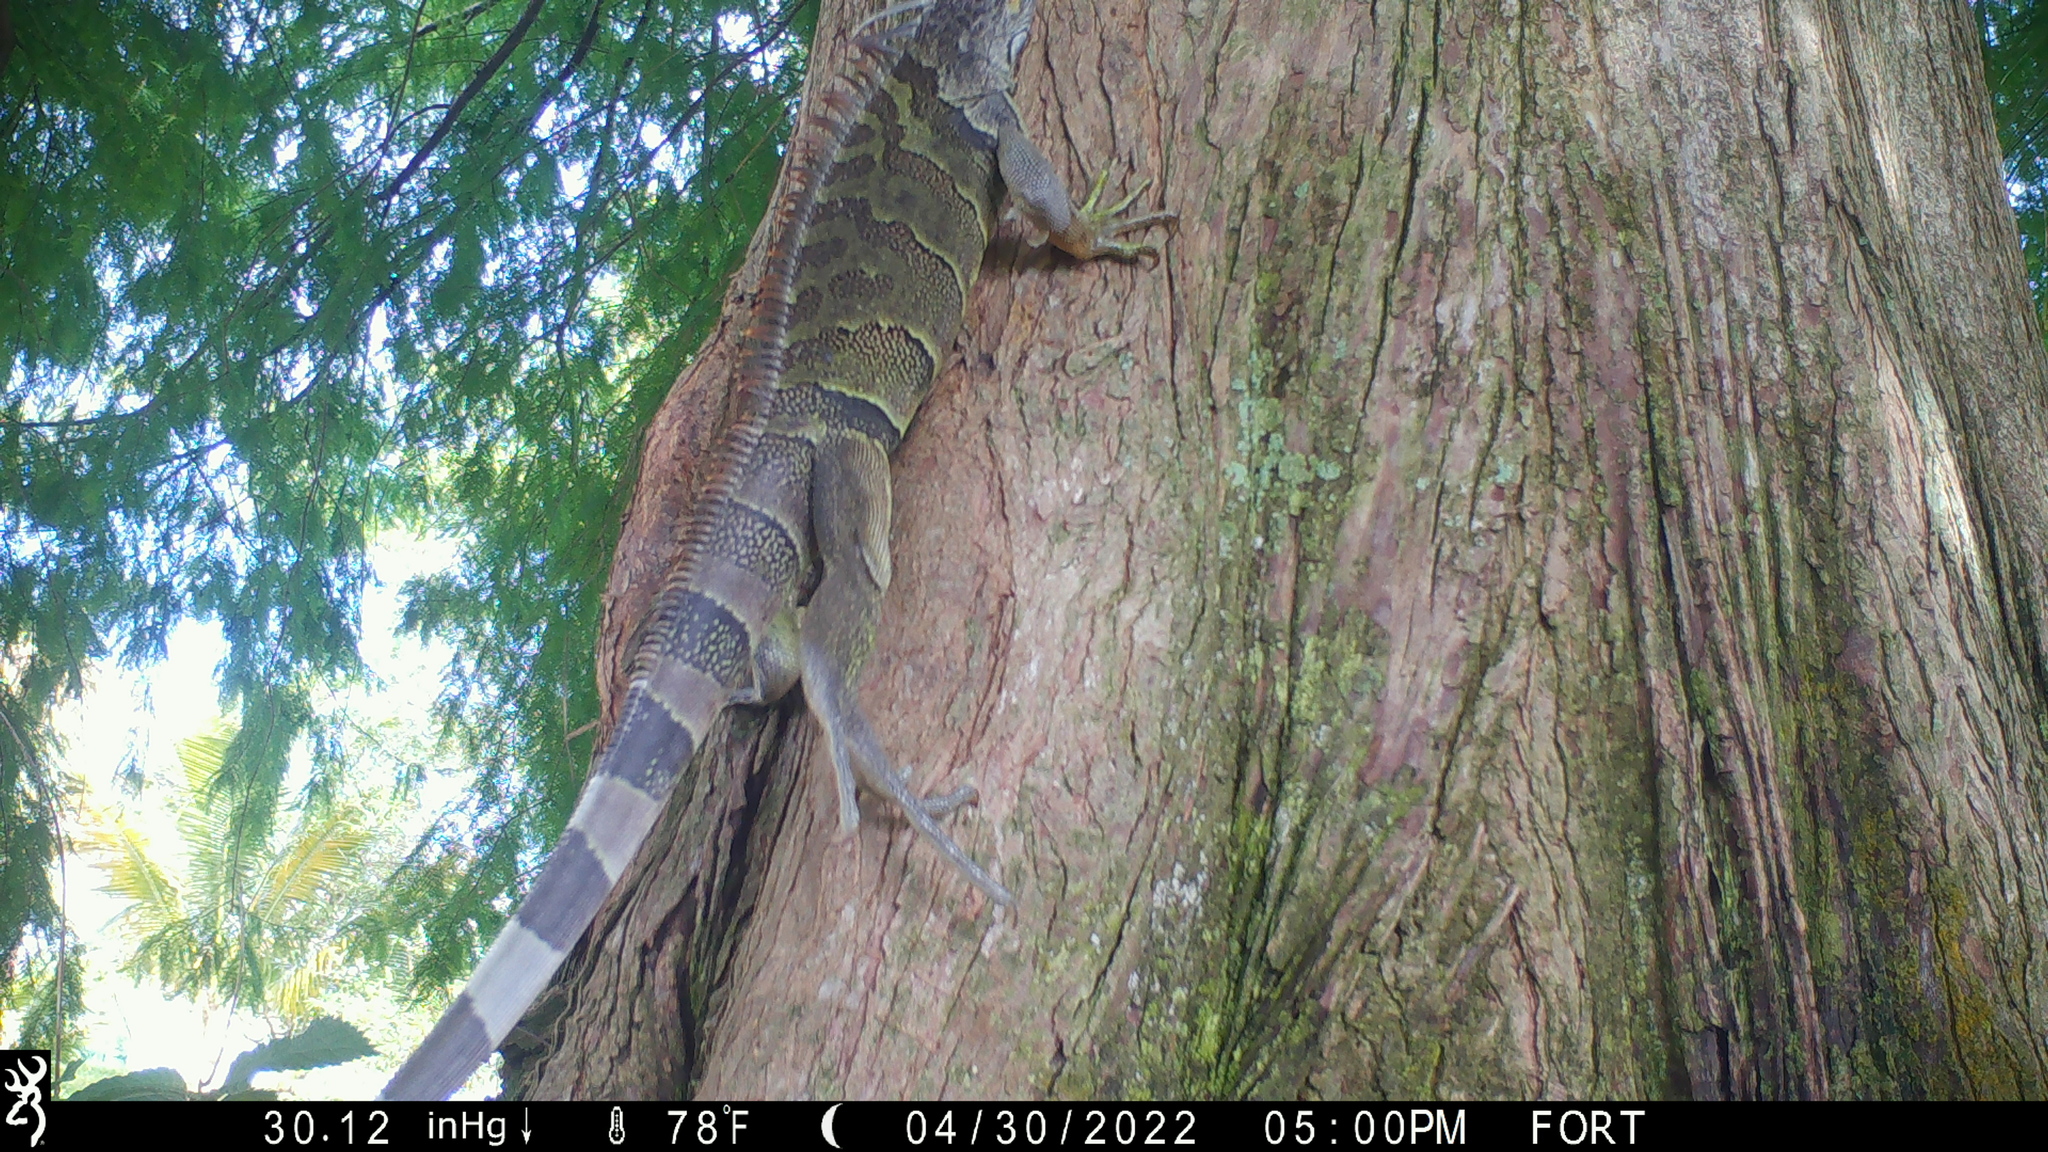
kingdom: Animalia
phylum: Chordata
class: Squamata
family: Iguanidae
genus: Iguana
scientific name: Iguana iguana
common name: Green iguana
